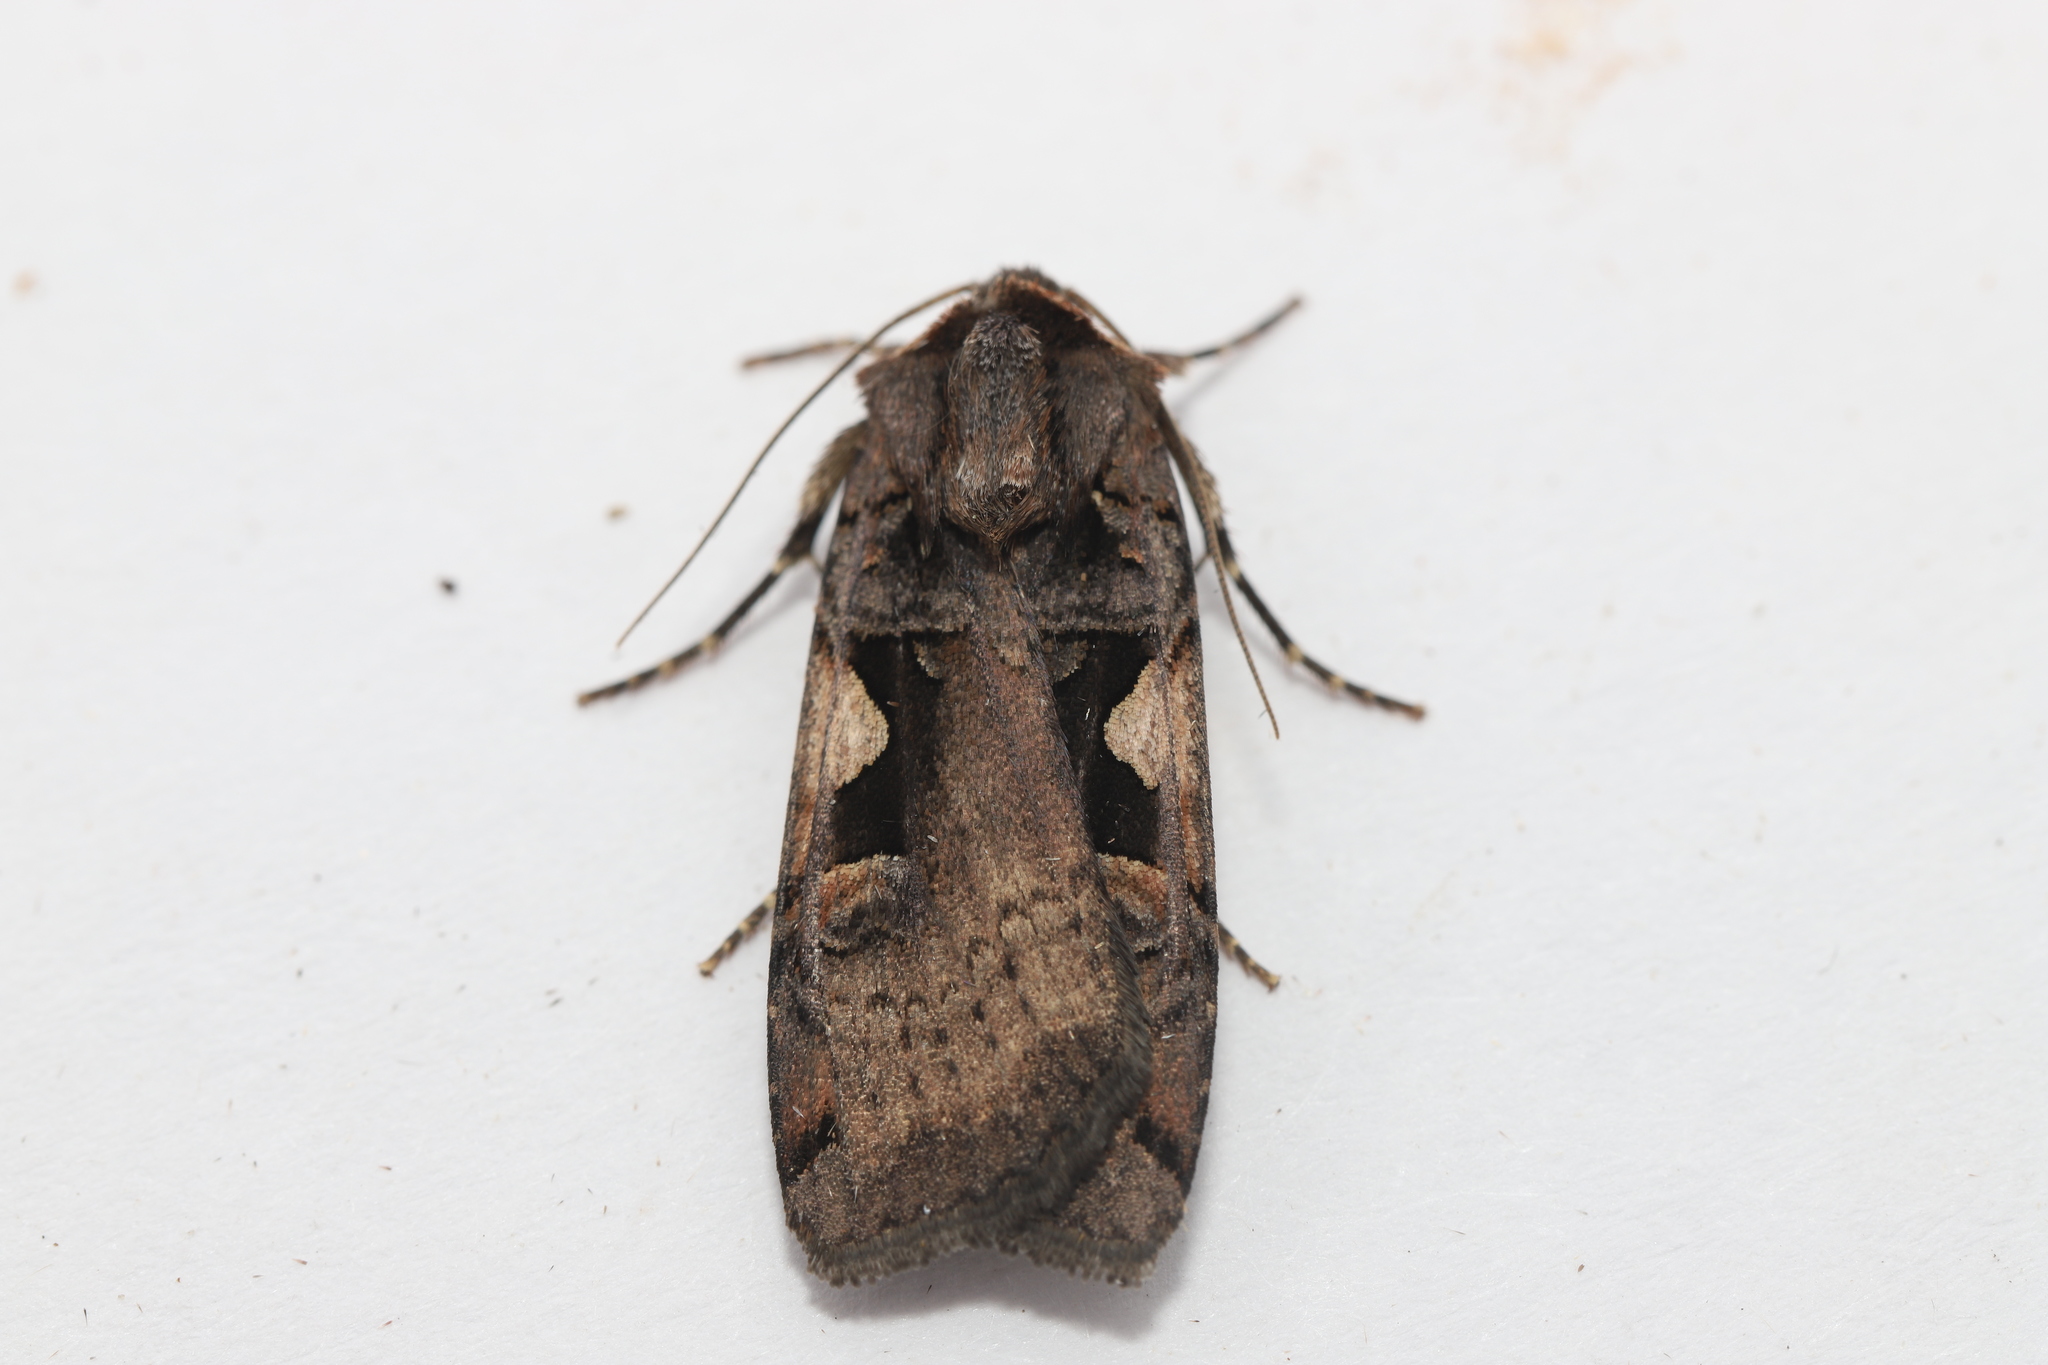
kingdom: Animalia
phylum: Arthropoda
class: Insecta
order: Lepidoptera
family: Noctuidae
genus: Xestia
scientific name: Xestia
